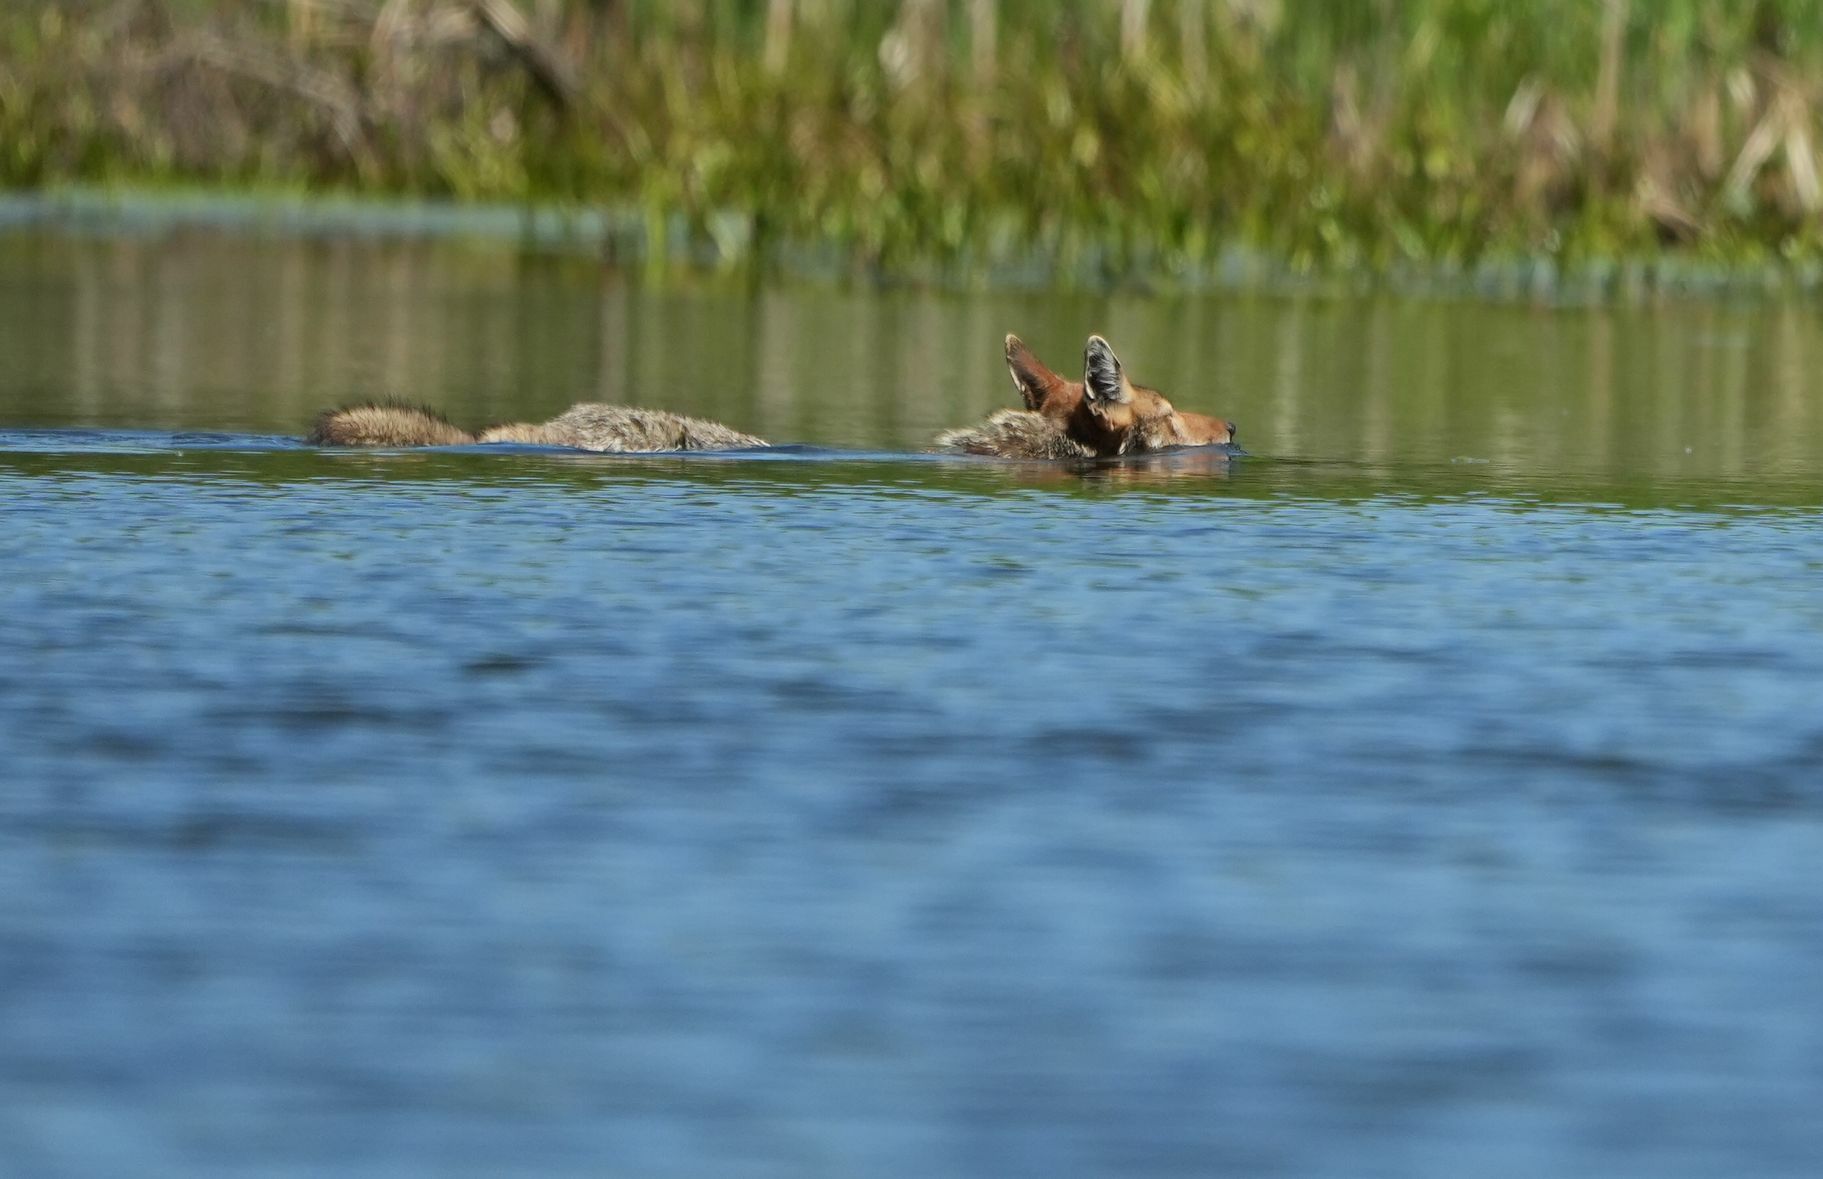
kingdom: Animalia
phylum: Chordata
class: Mammalia
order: Carnivora
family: Canidae
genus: Canis
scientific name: Canis latrans
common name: Coyote
